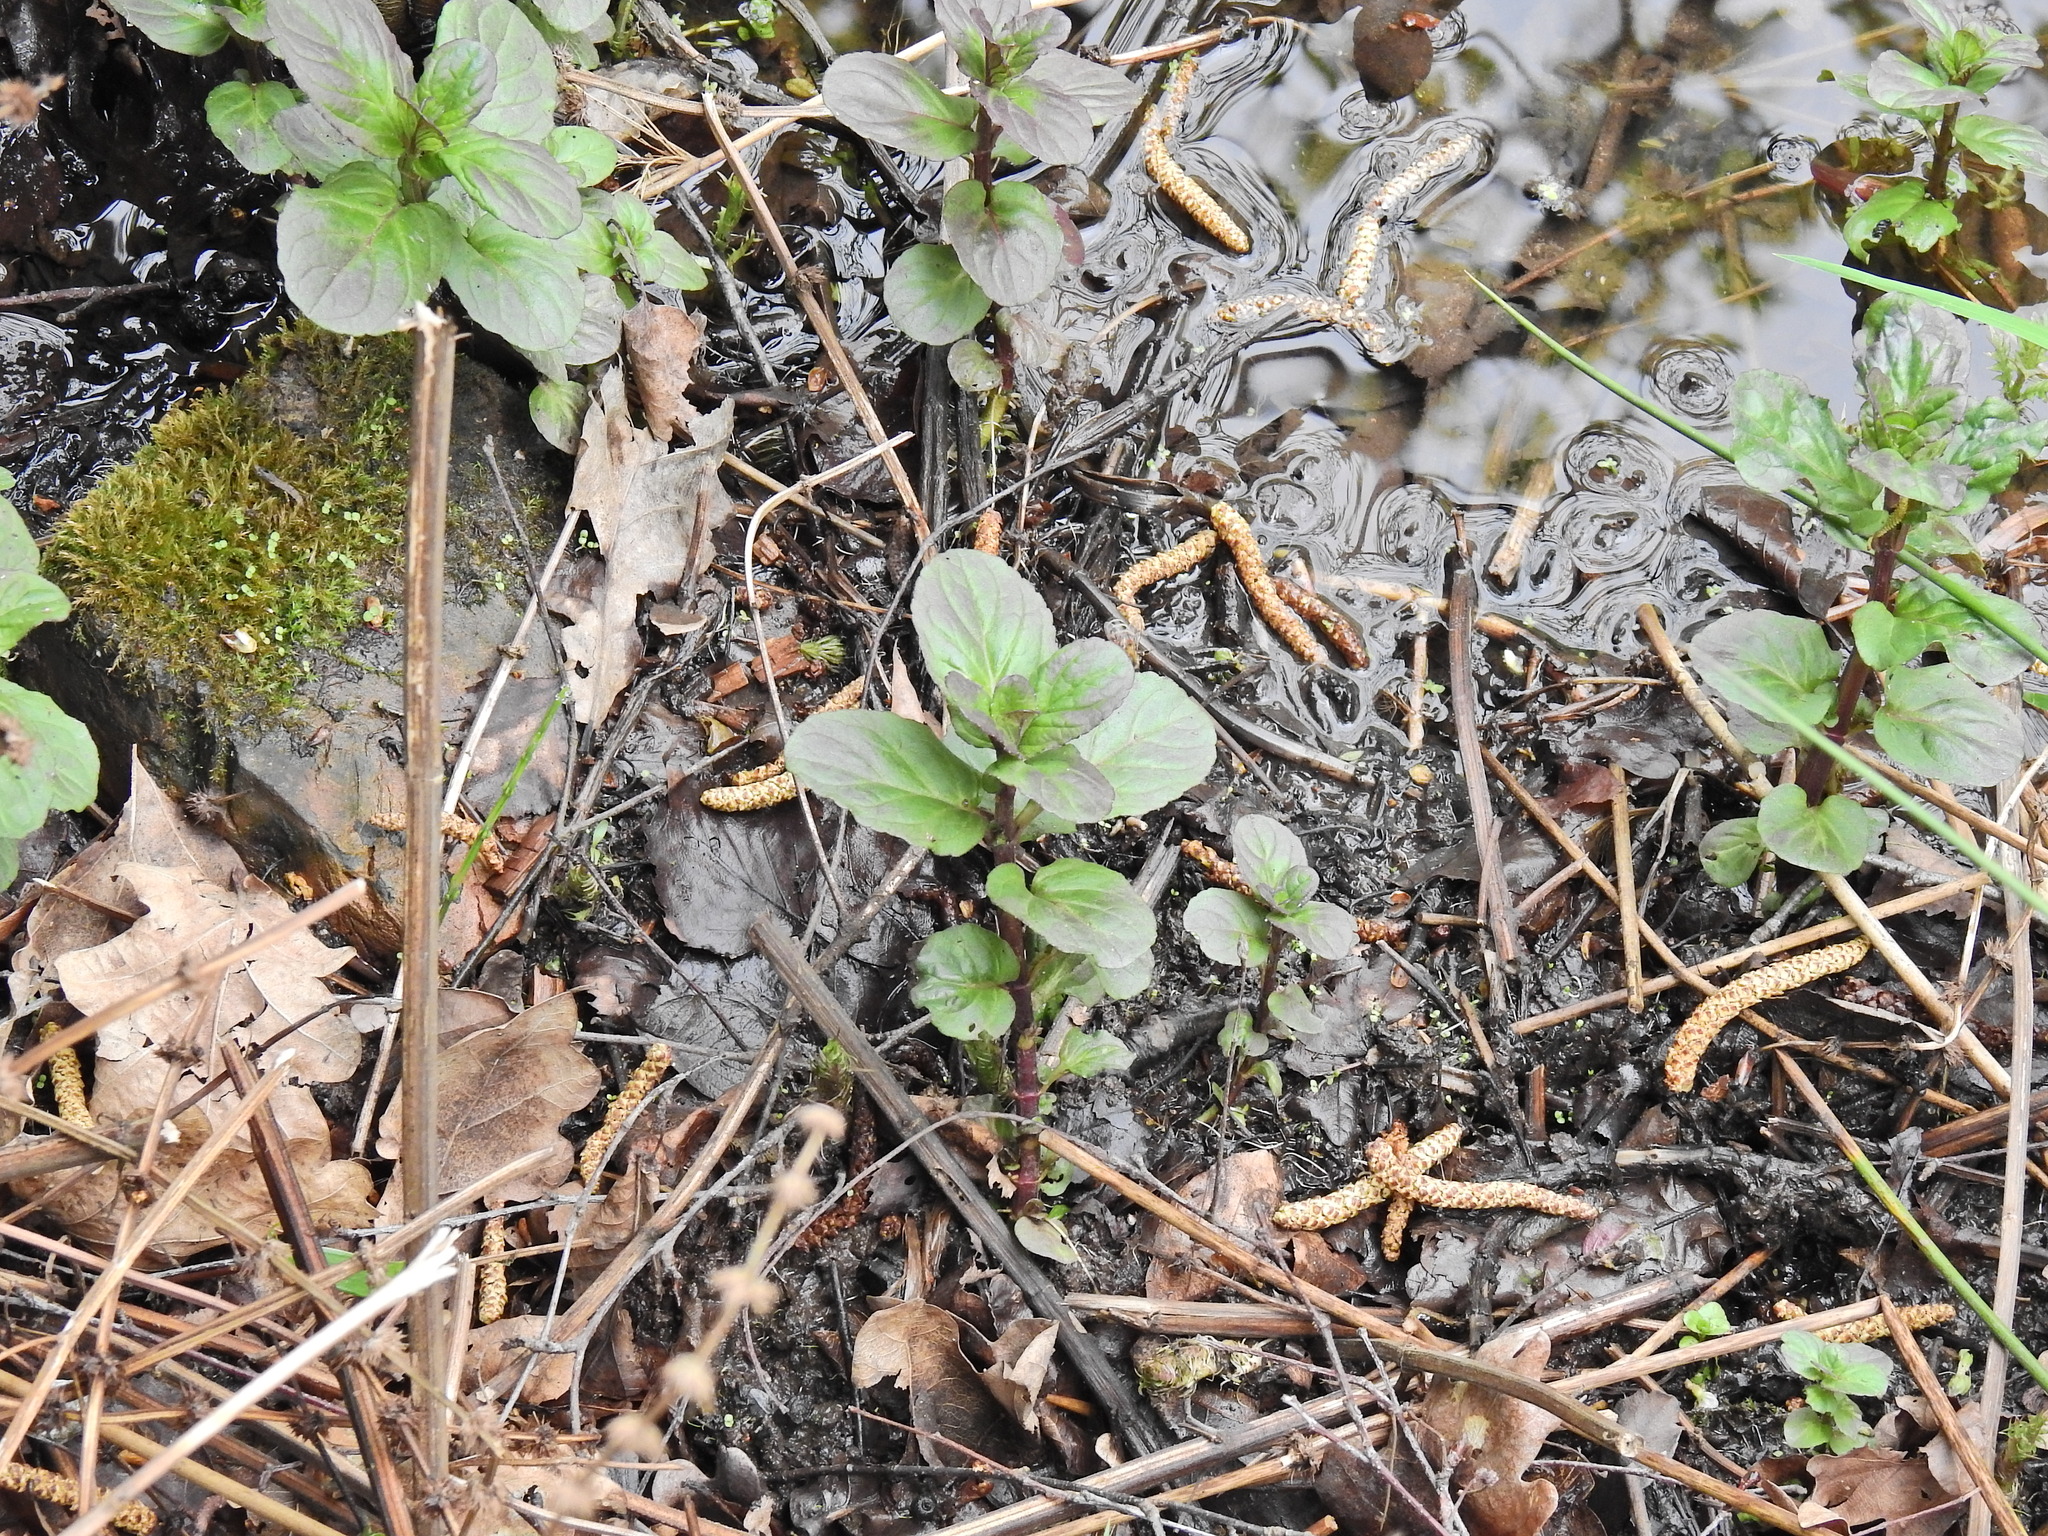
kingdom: Plantae
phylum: Tracheophyta
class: Magnoliopsida
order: Lamiales
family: Lamiaceae
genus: Mentha
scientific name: Mentha aquatica
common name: Water mint
